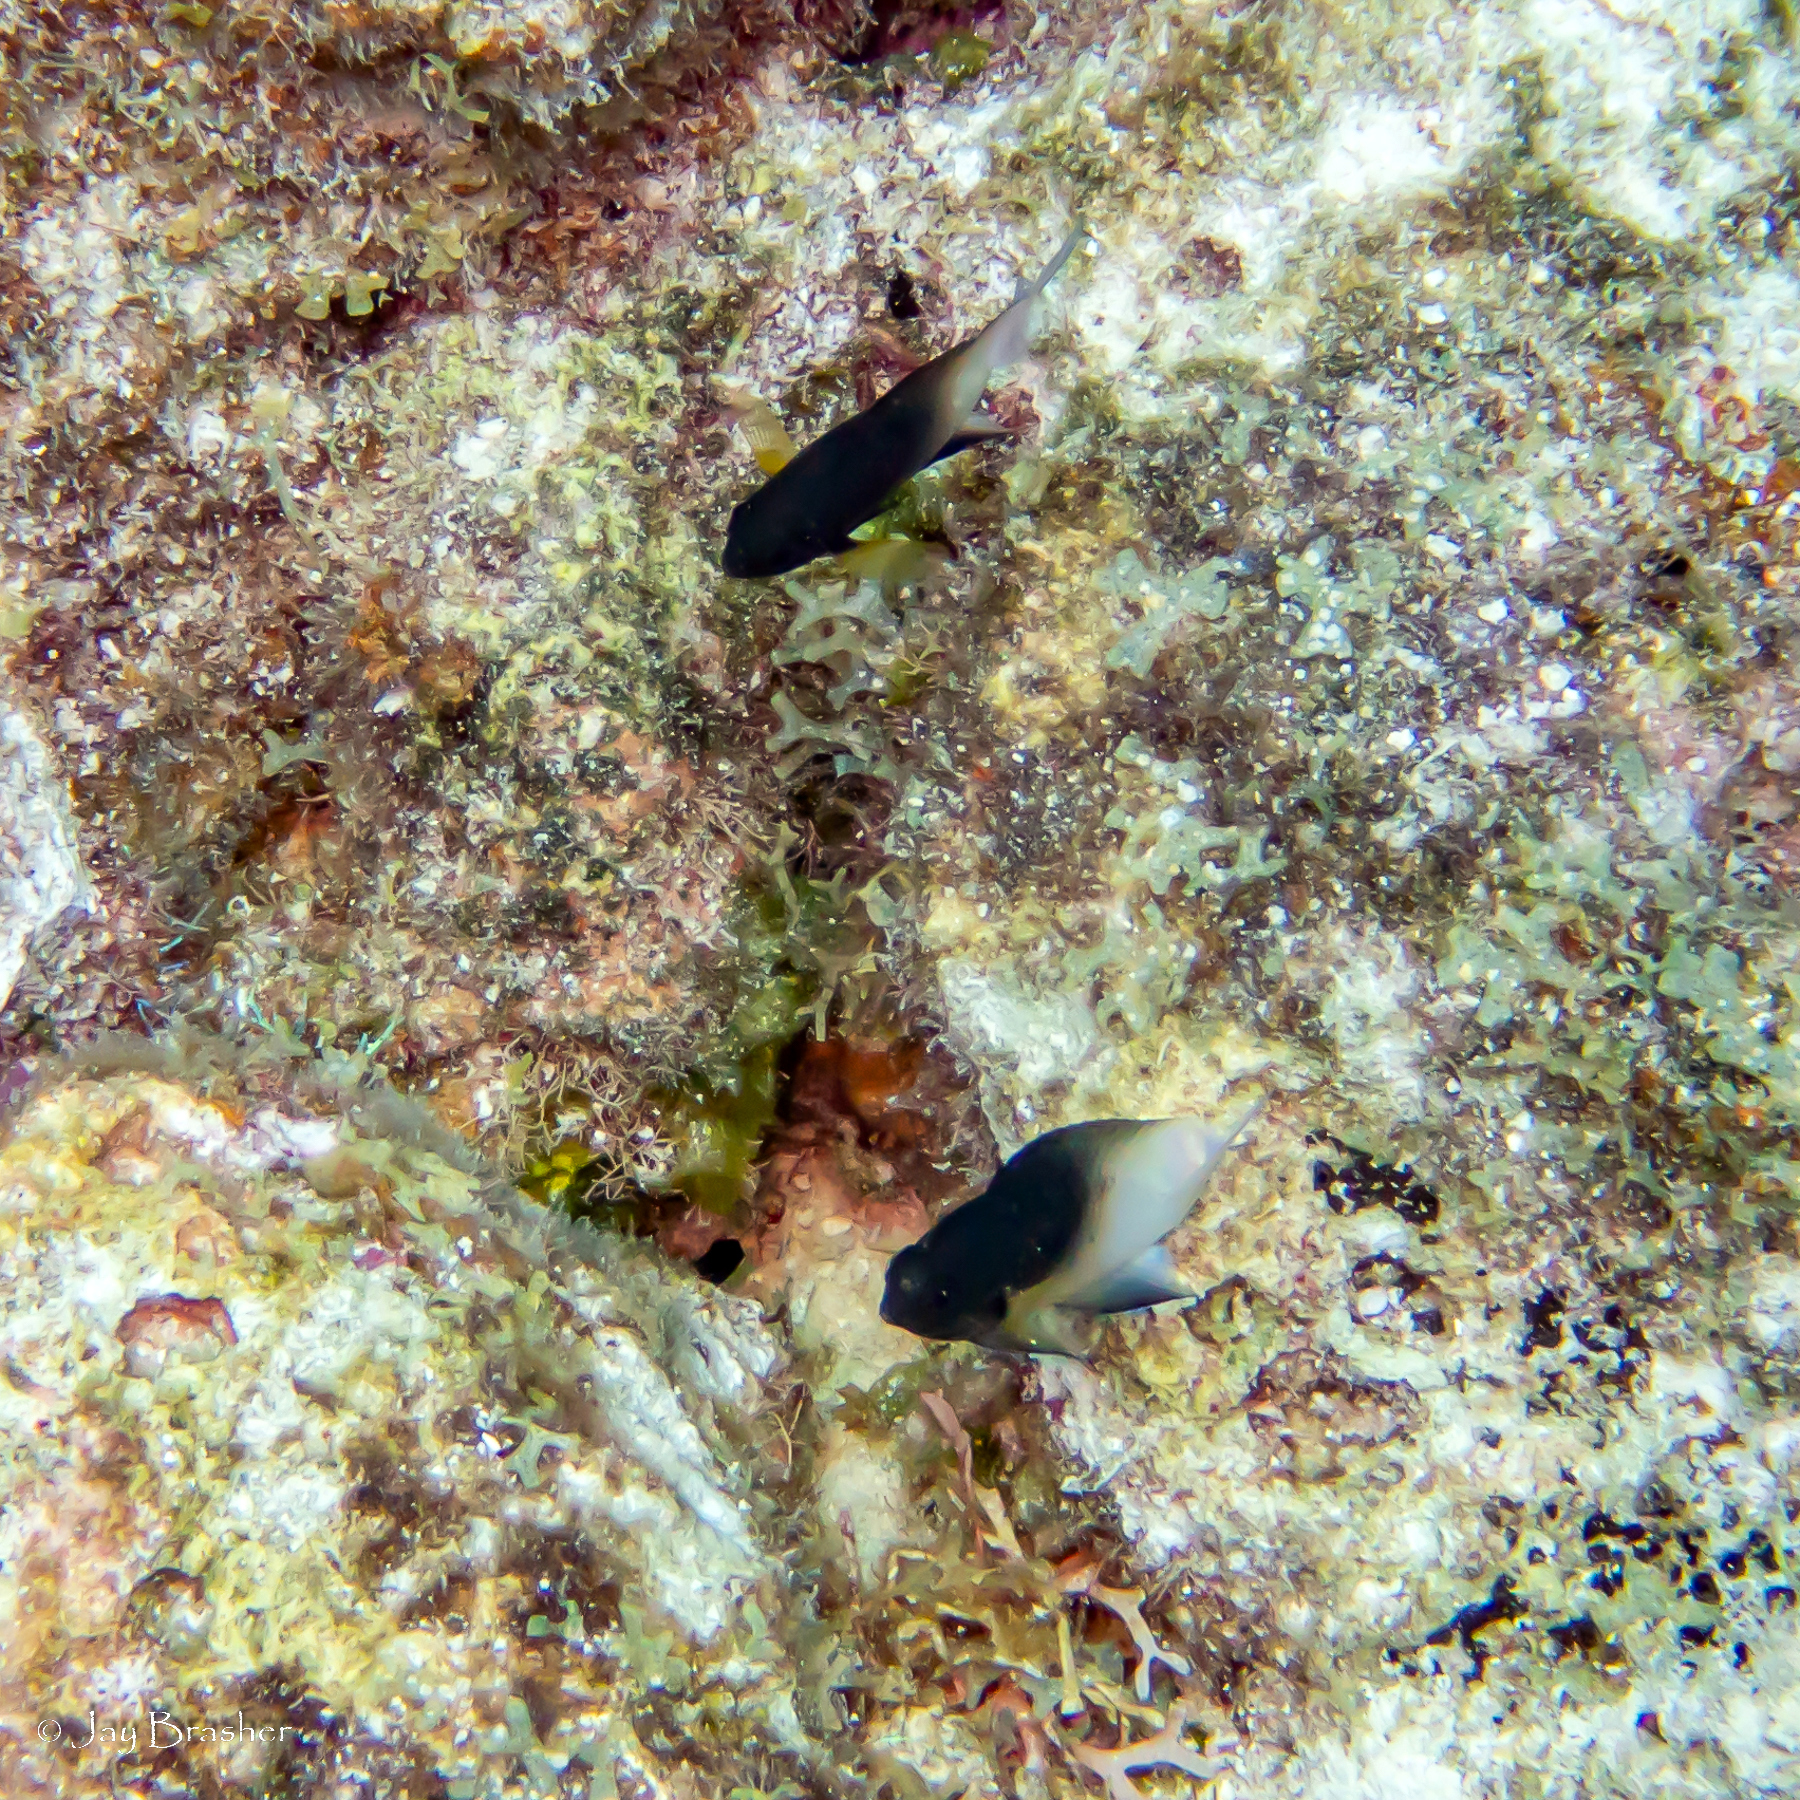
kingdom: Animalia
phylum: Chordata
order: Perciformes
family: Pomacentridae
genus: Stegastes
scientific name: Stegastes partitus
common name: Bicolor damselfish
